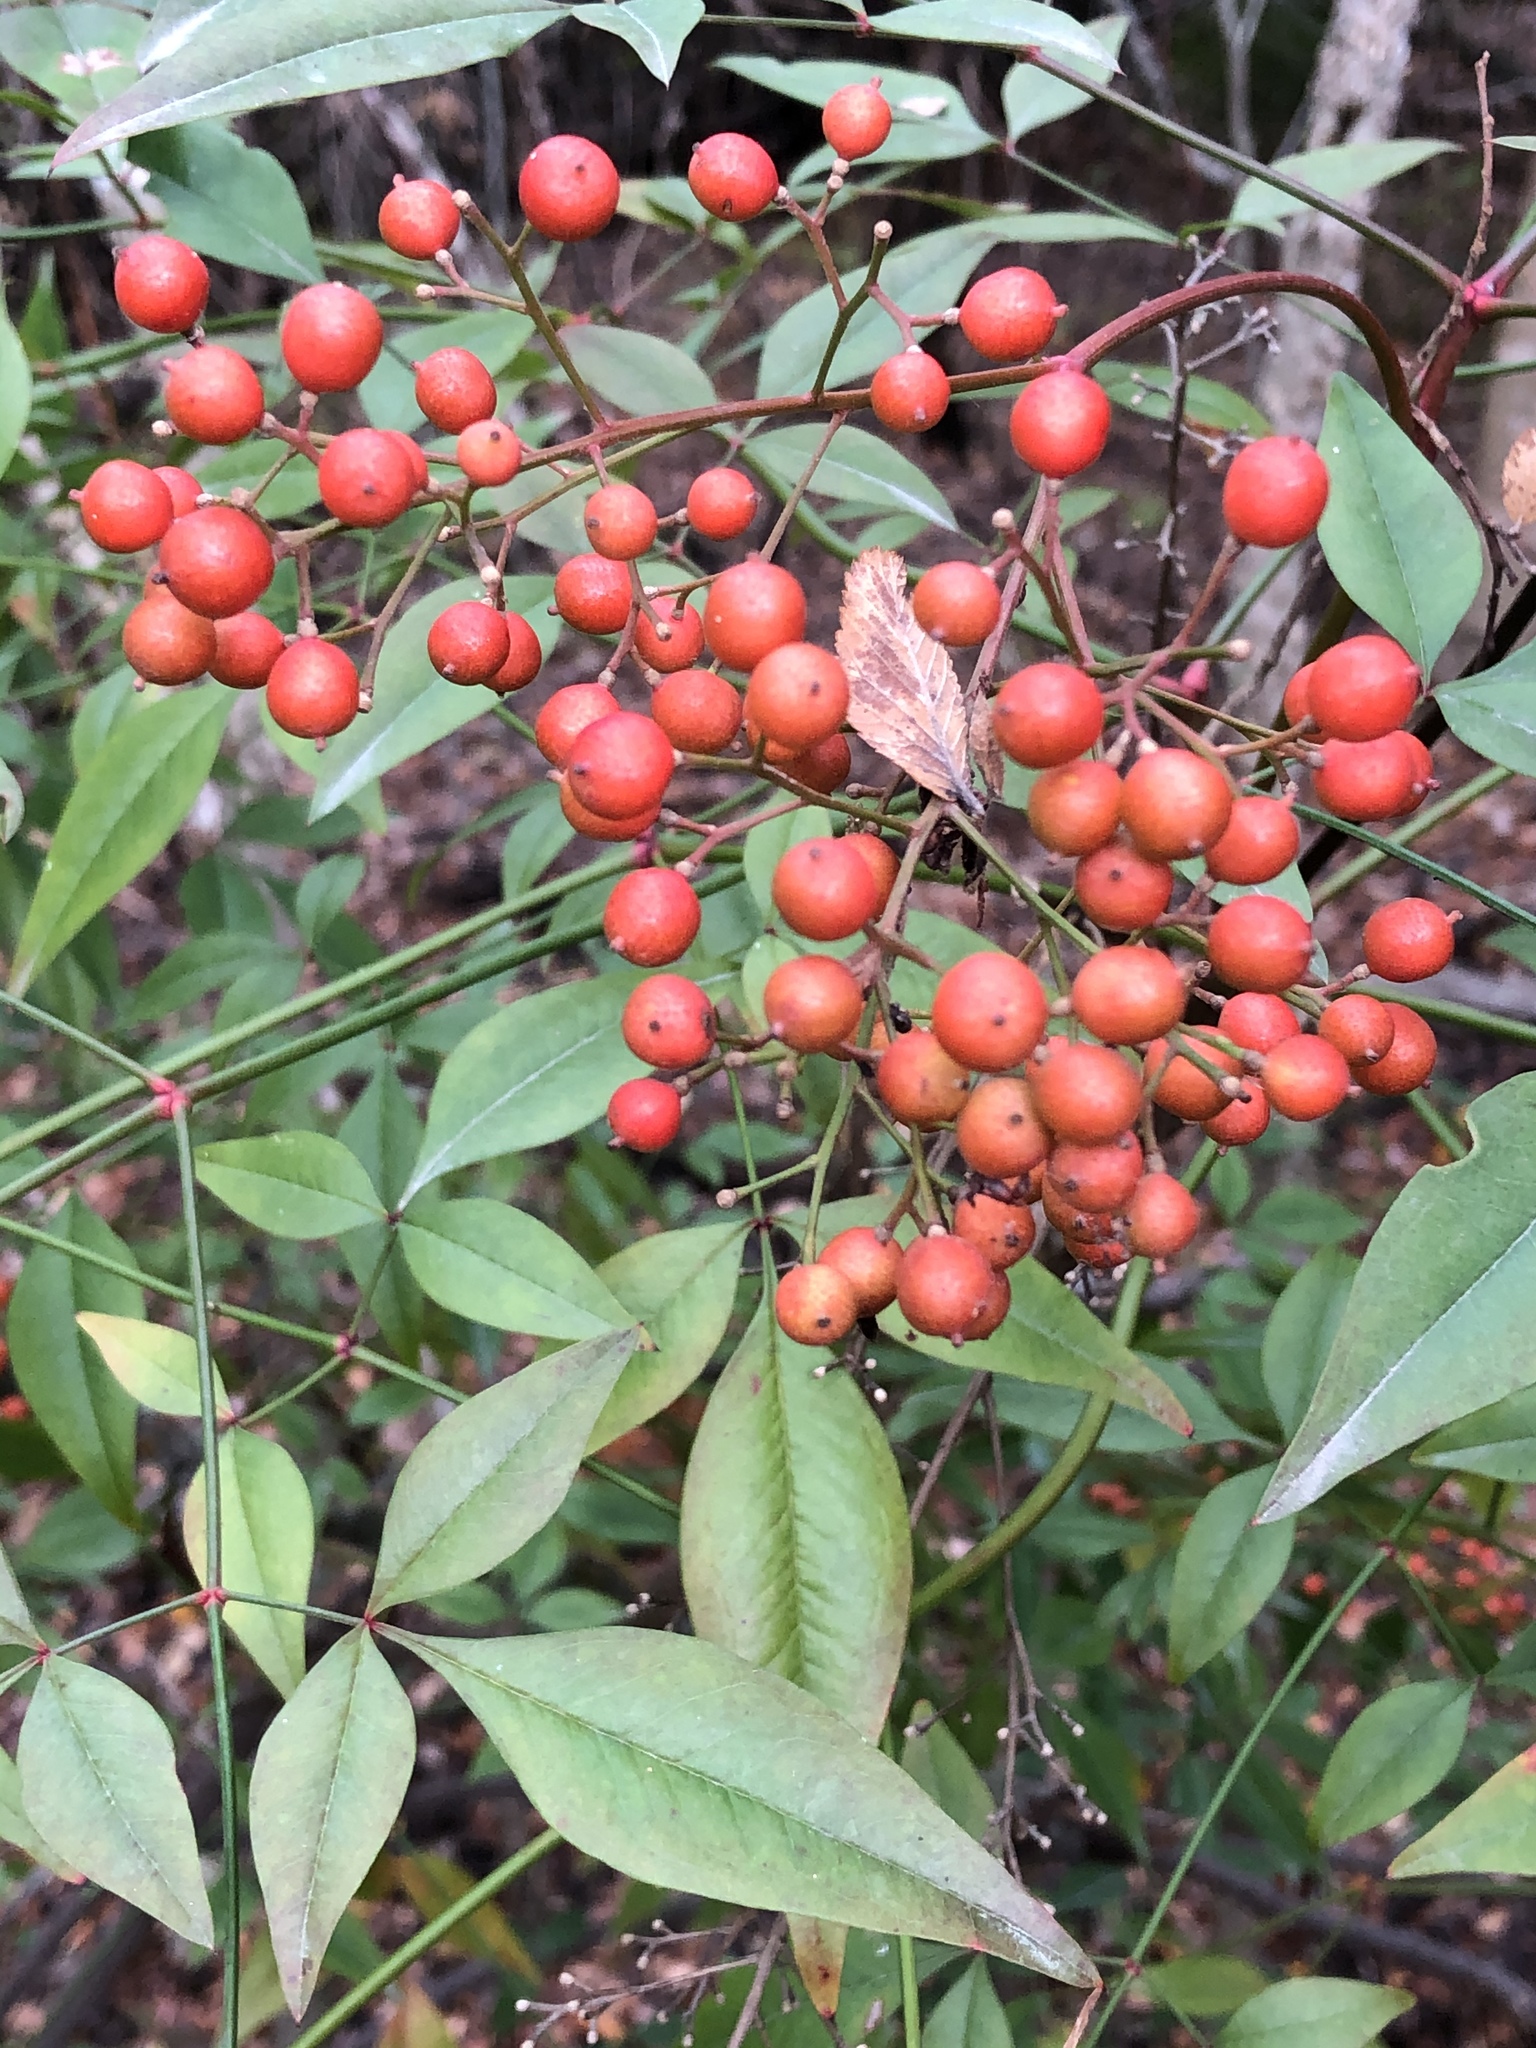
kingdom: Plantae
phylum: Tracheophyta
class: Magnoliopsida
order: Ranunculales
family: Berberidaceae
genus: Nandina
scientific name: Nandina domestica
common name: Sacred bamboo
